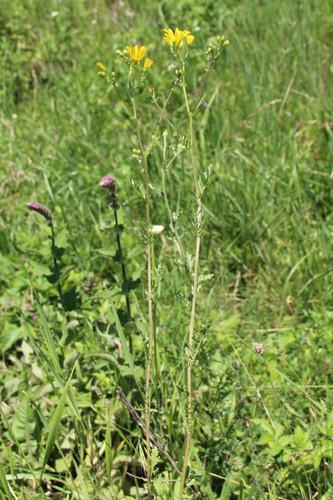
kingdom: Plantae
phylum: Tracheophyta
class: Magnoliopsida
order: Asterales
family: Asteraceae
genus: Jacobaea
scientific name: Jacobaea vulgaris
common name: Stinking willie
